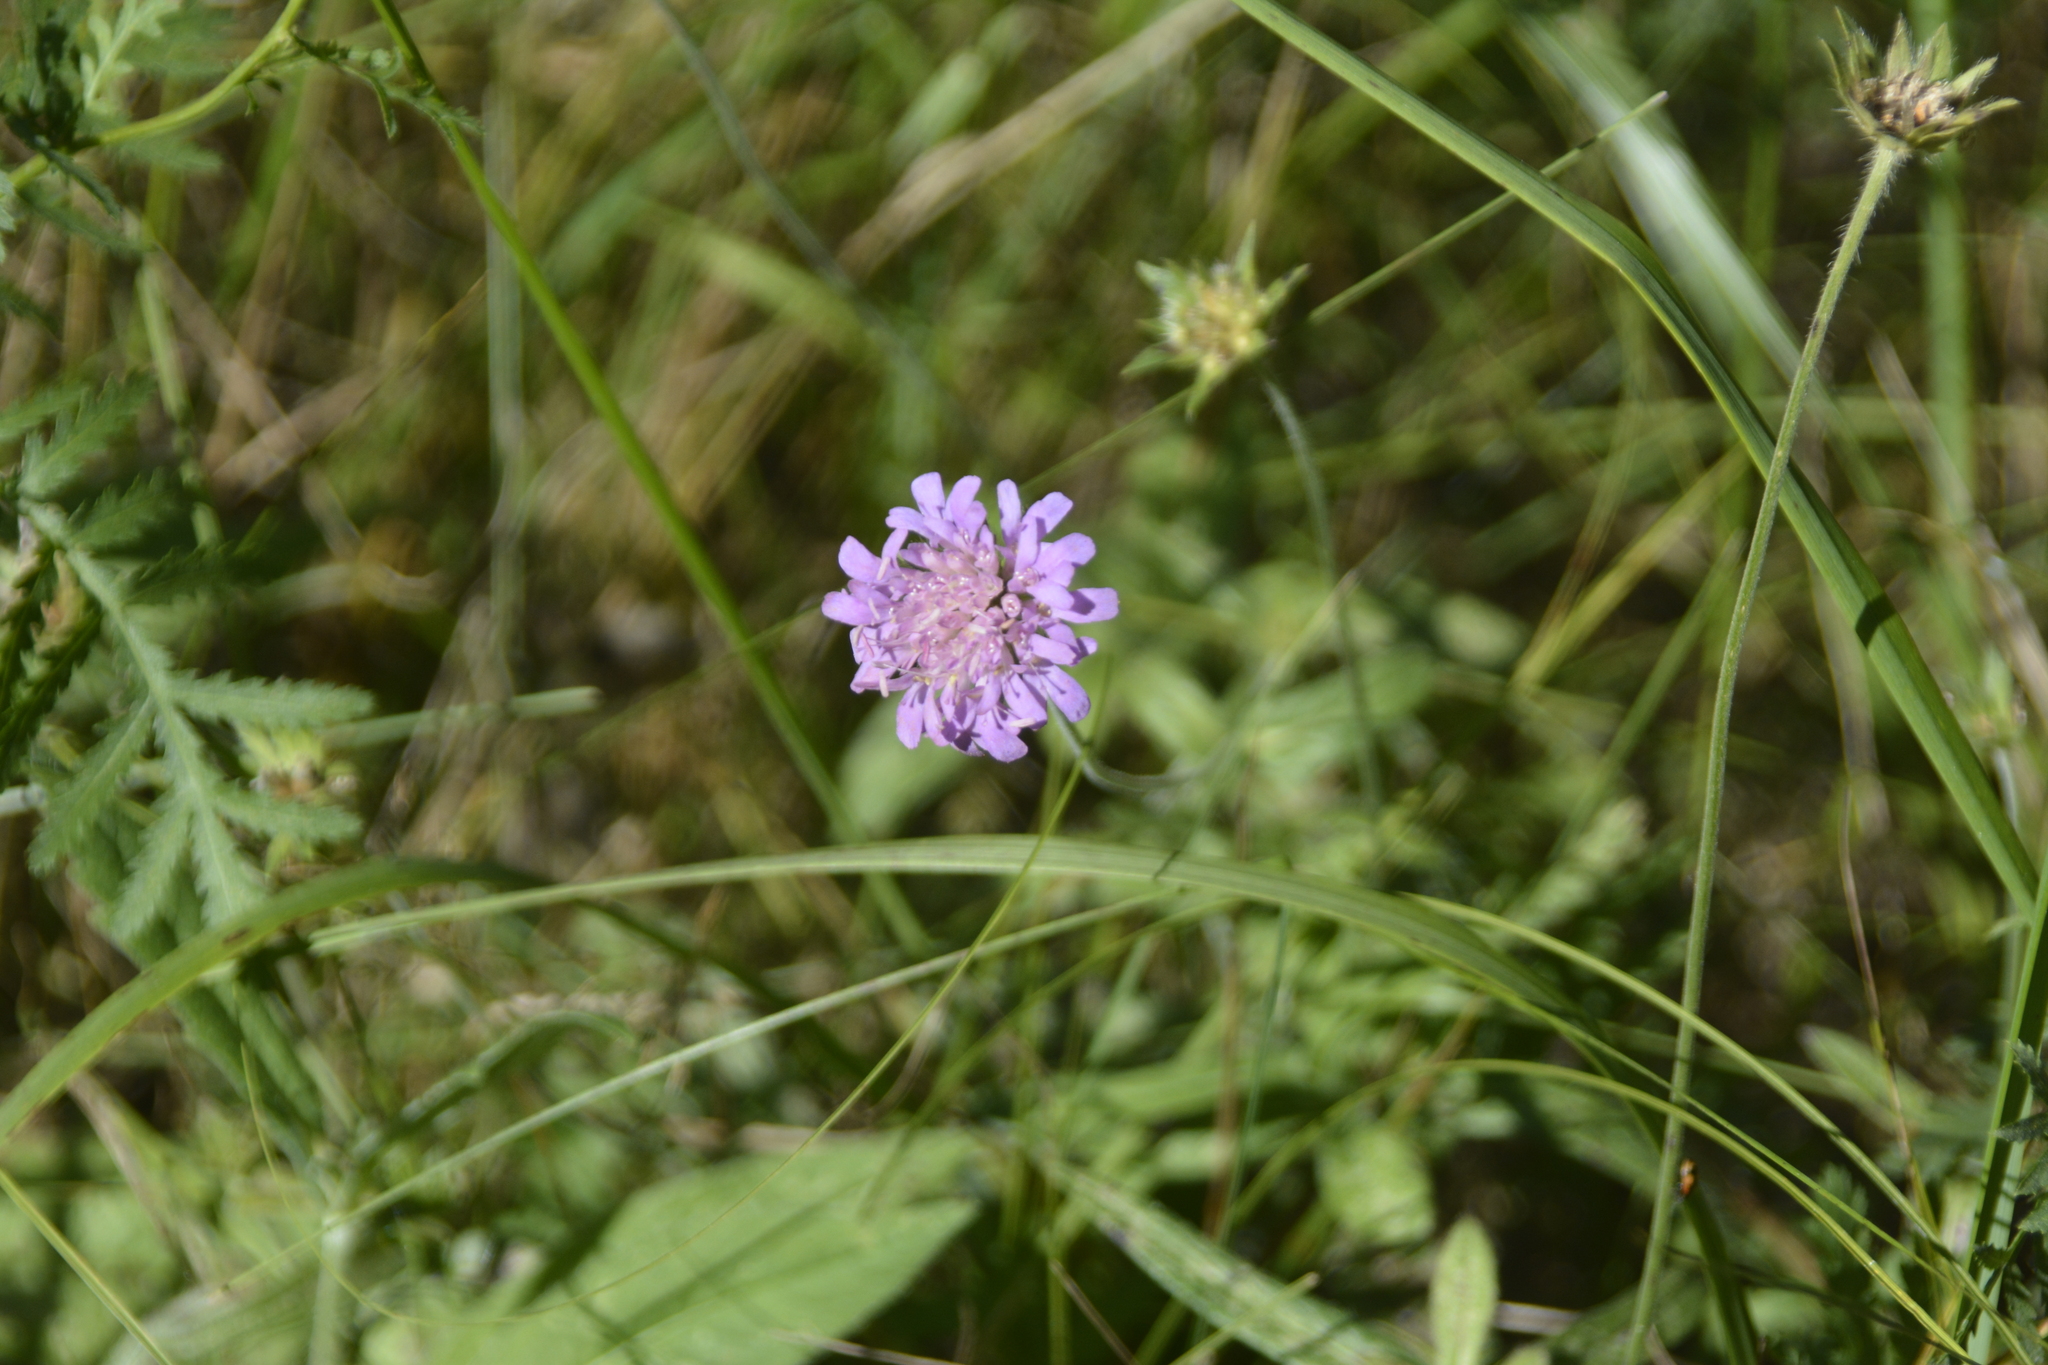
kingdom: Plantae
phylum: Tracheophyta
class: Magnoliopsida
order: Dipsacales
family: Caprifoliaceae
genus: Knautia
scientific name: Knautia arvensis
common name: Field scabiosa
